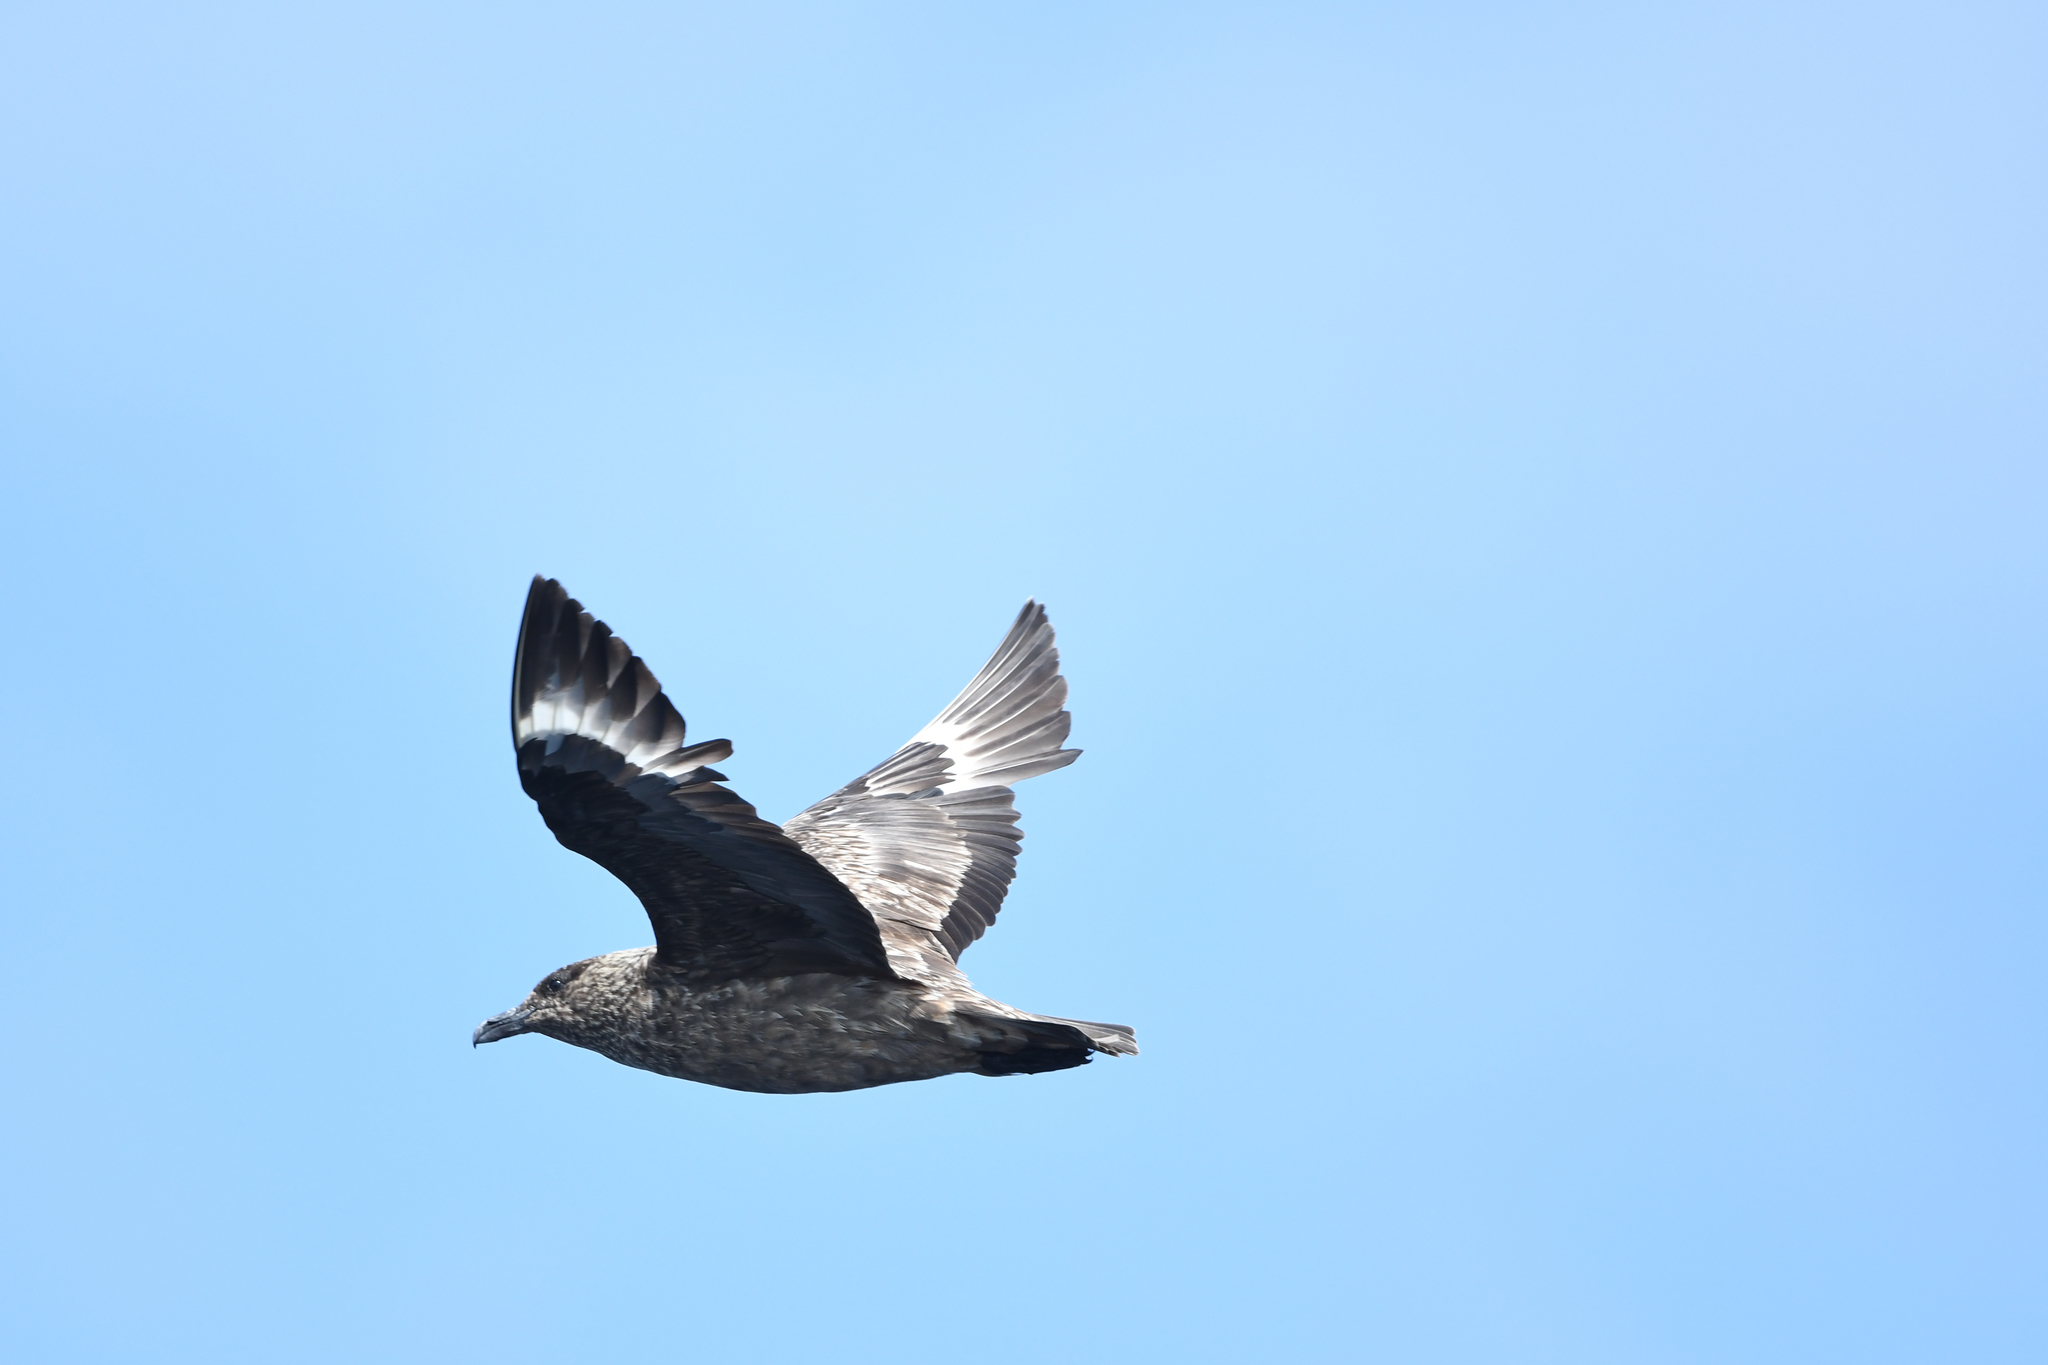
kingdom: Animalia
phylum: Chordata
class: Aves
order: Charadriiformes
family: Stercorariidae
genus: Stercorarius
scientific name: Stercorarius skua
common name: Great skua
